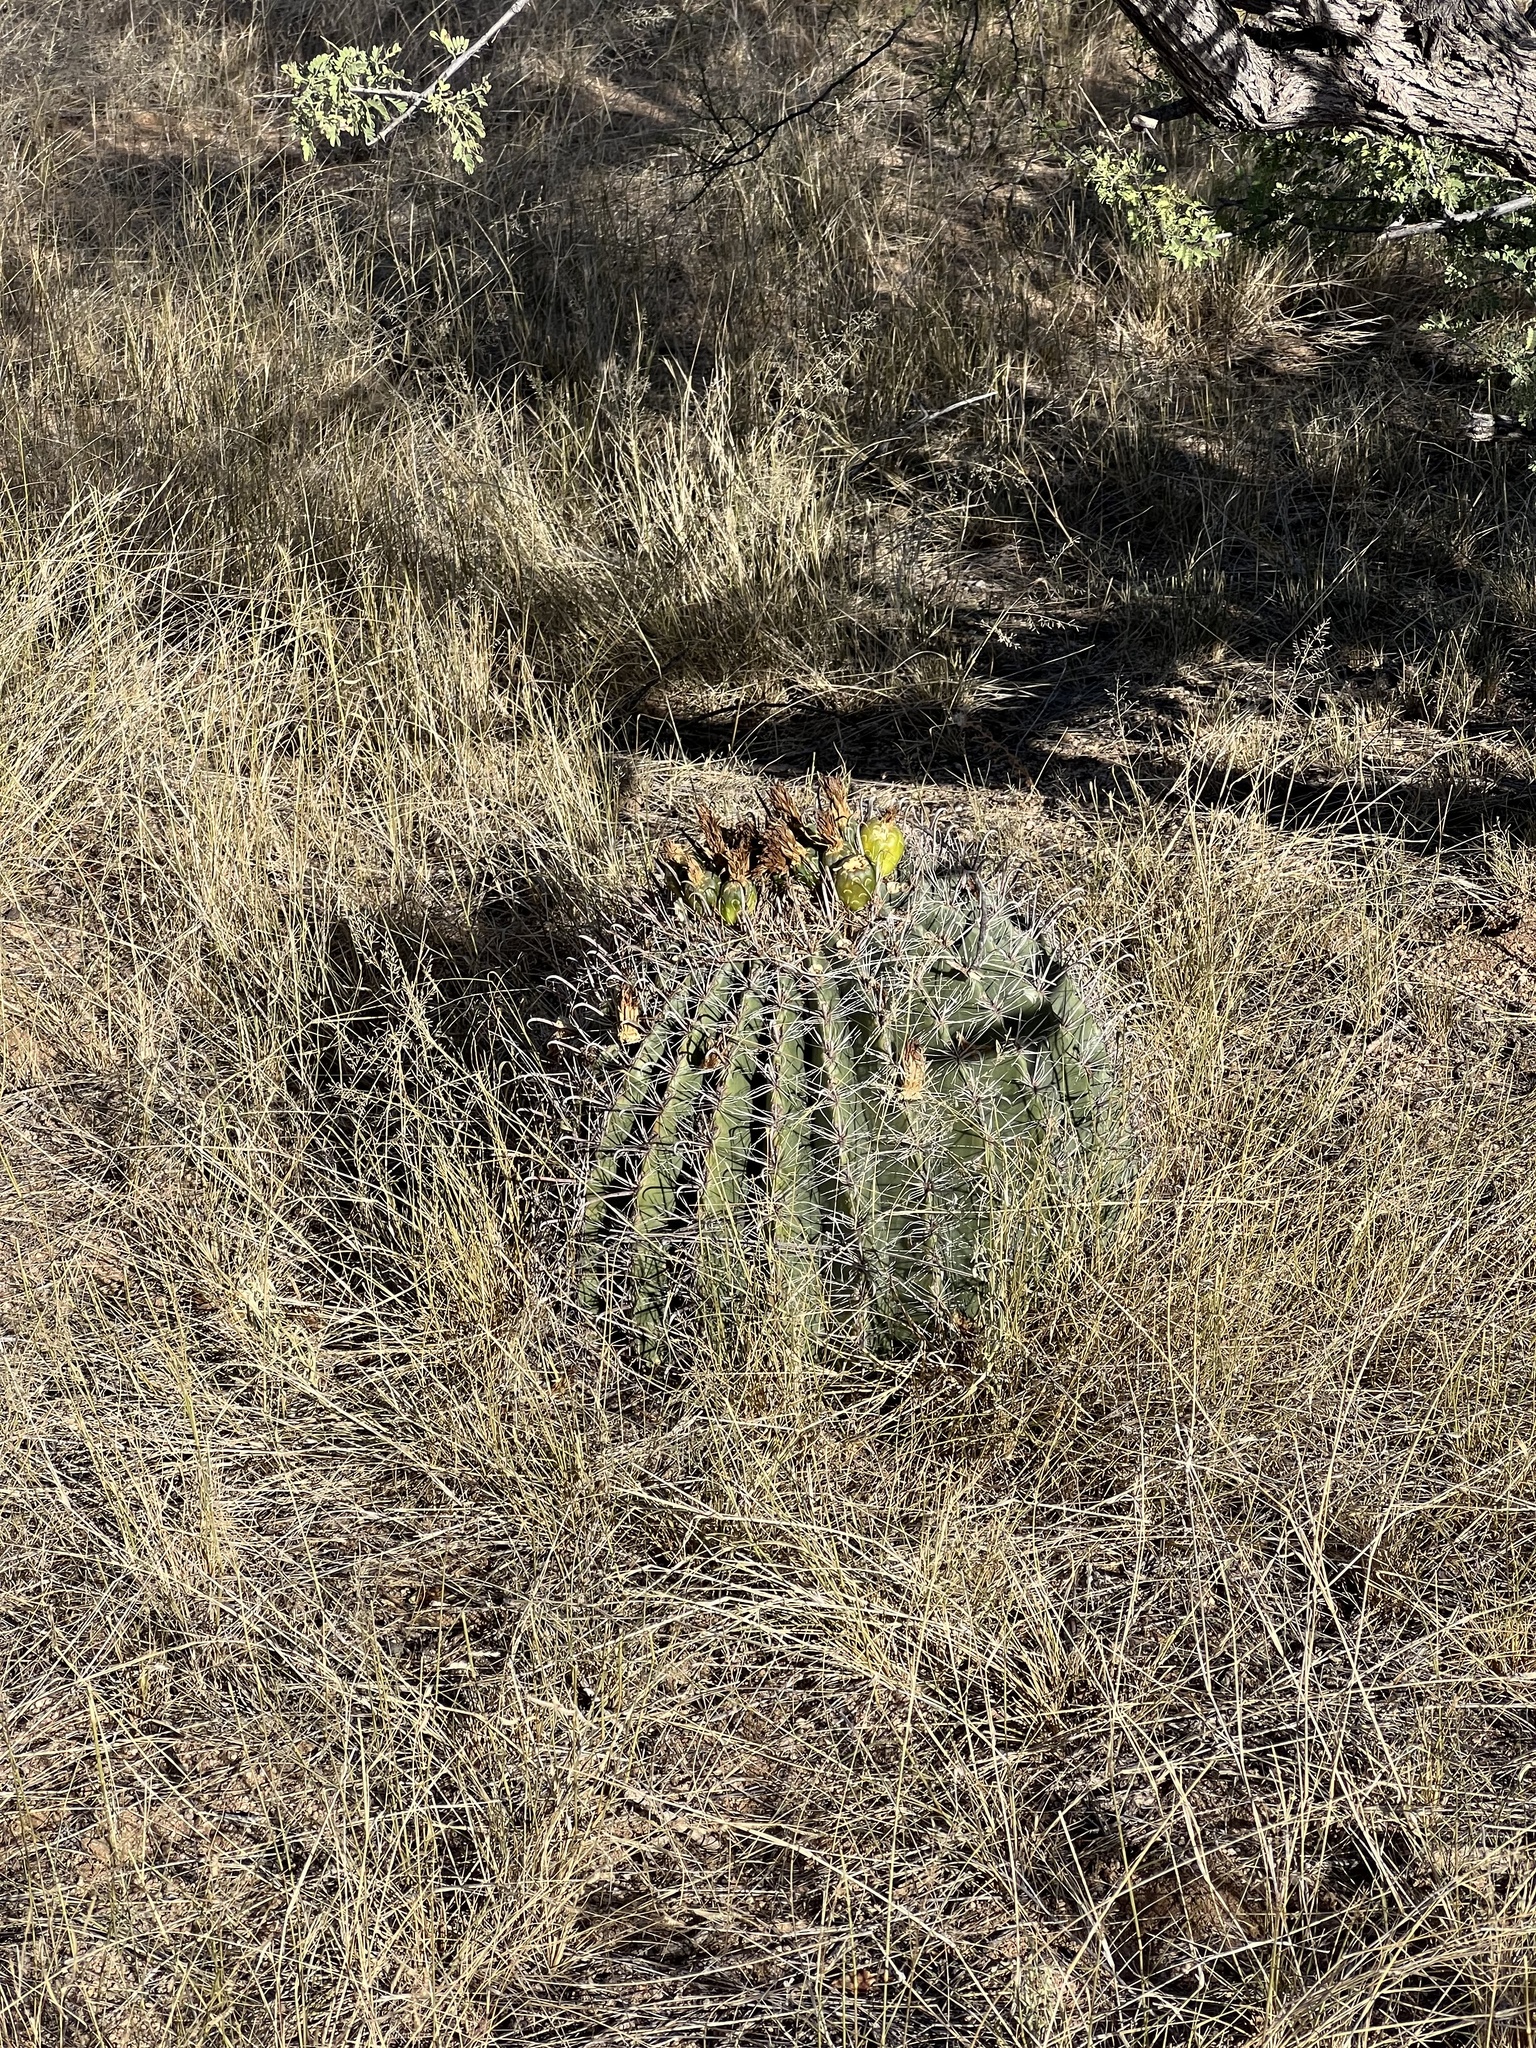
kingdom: Plantae
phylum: Tracheophyta
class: Magnoliopsida
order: Caryophyllales
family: Cactaceae
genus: Ferocactus
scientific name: Ferocactus wislizeni
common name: Candy barrel cactus
